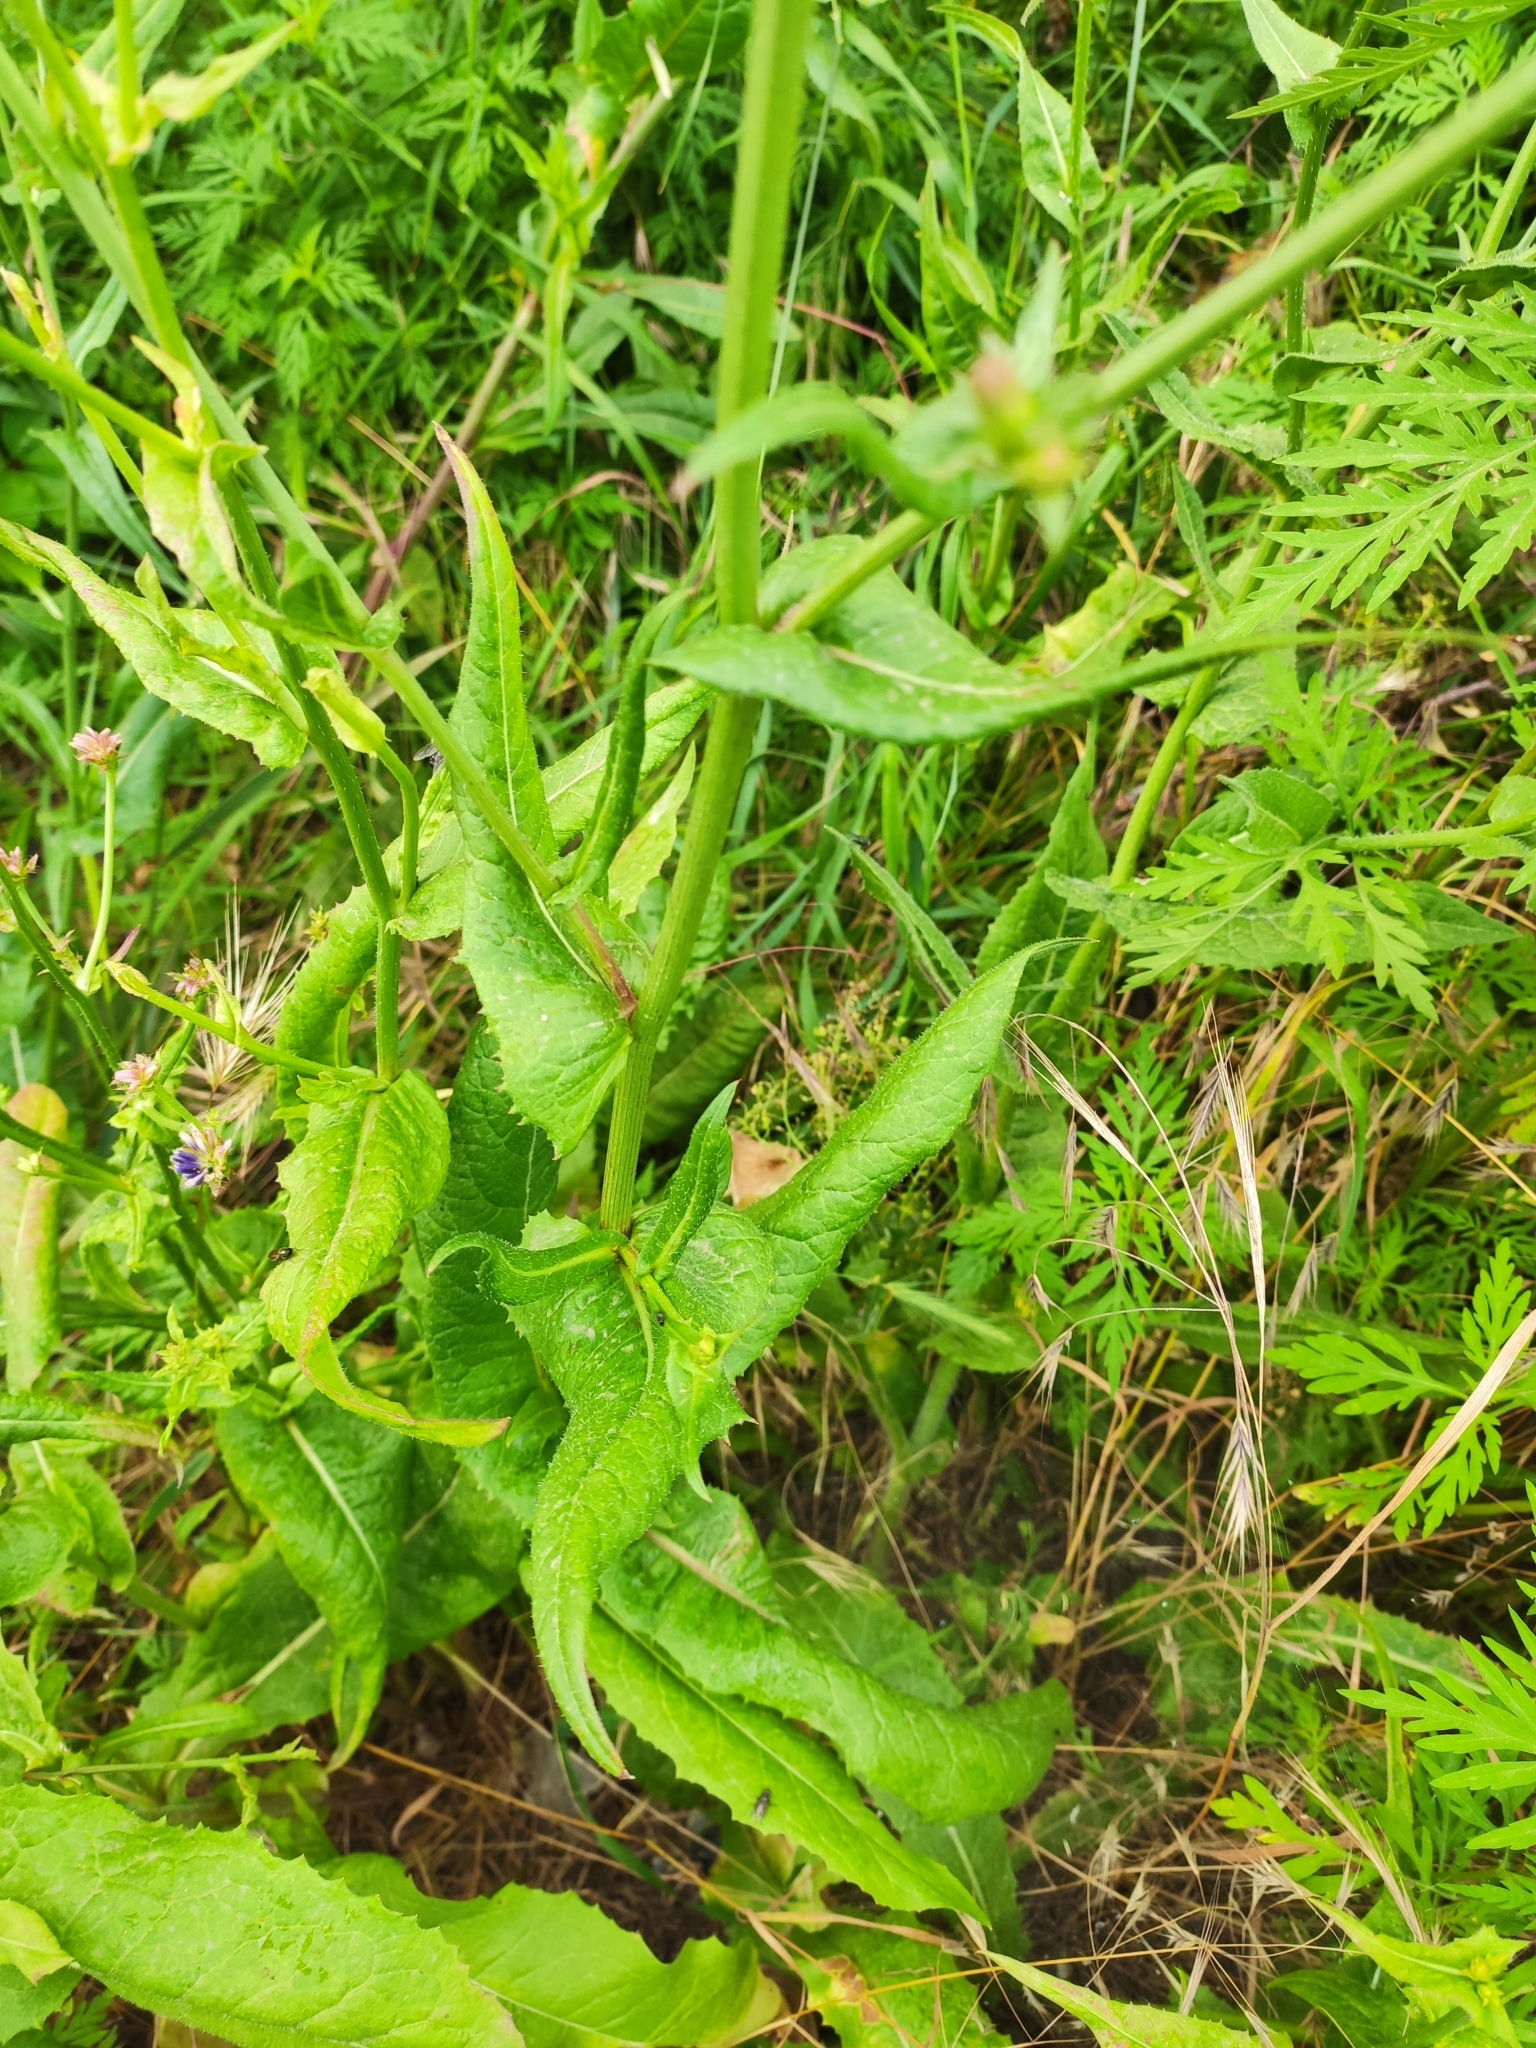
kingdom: Plantae
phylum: Tracheophyta
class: Magnoliopsida
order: Asterales
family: Asteraceae
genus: Cichorium
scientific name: Cichorium intybus
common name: Chicory
